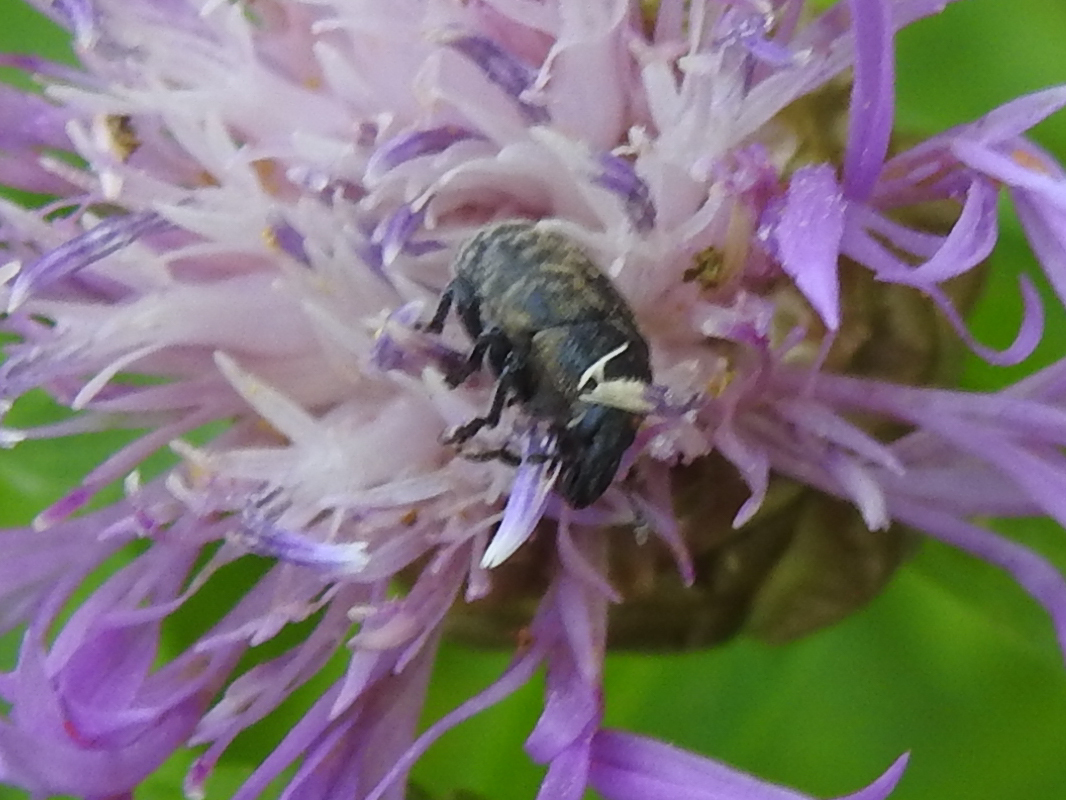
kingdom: Animalia
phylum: Arthropoda
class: Insecta
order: Coleoptera
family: Curculionidae
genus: Larinus
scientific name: Larinus obtusus
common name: Weevil
